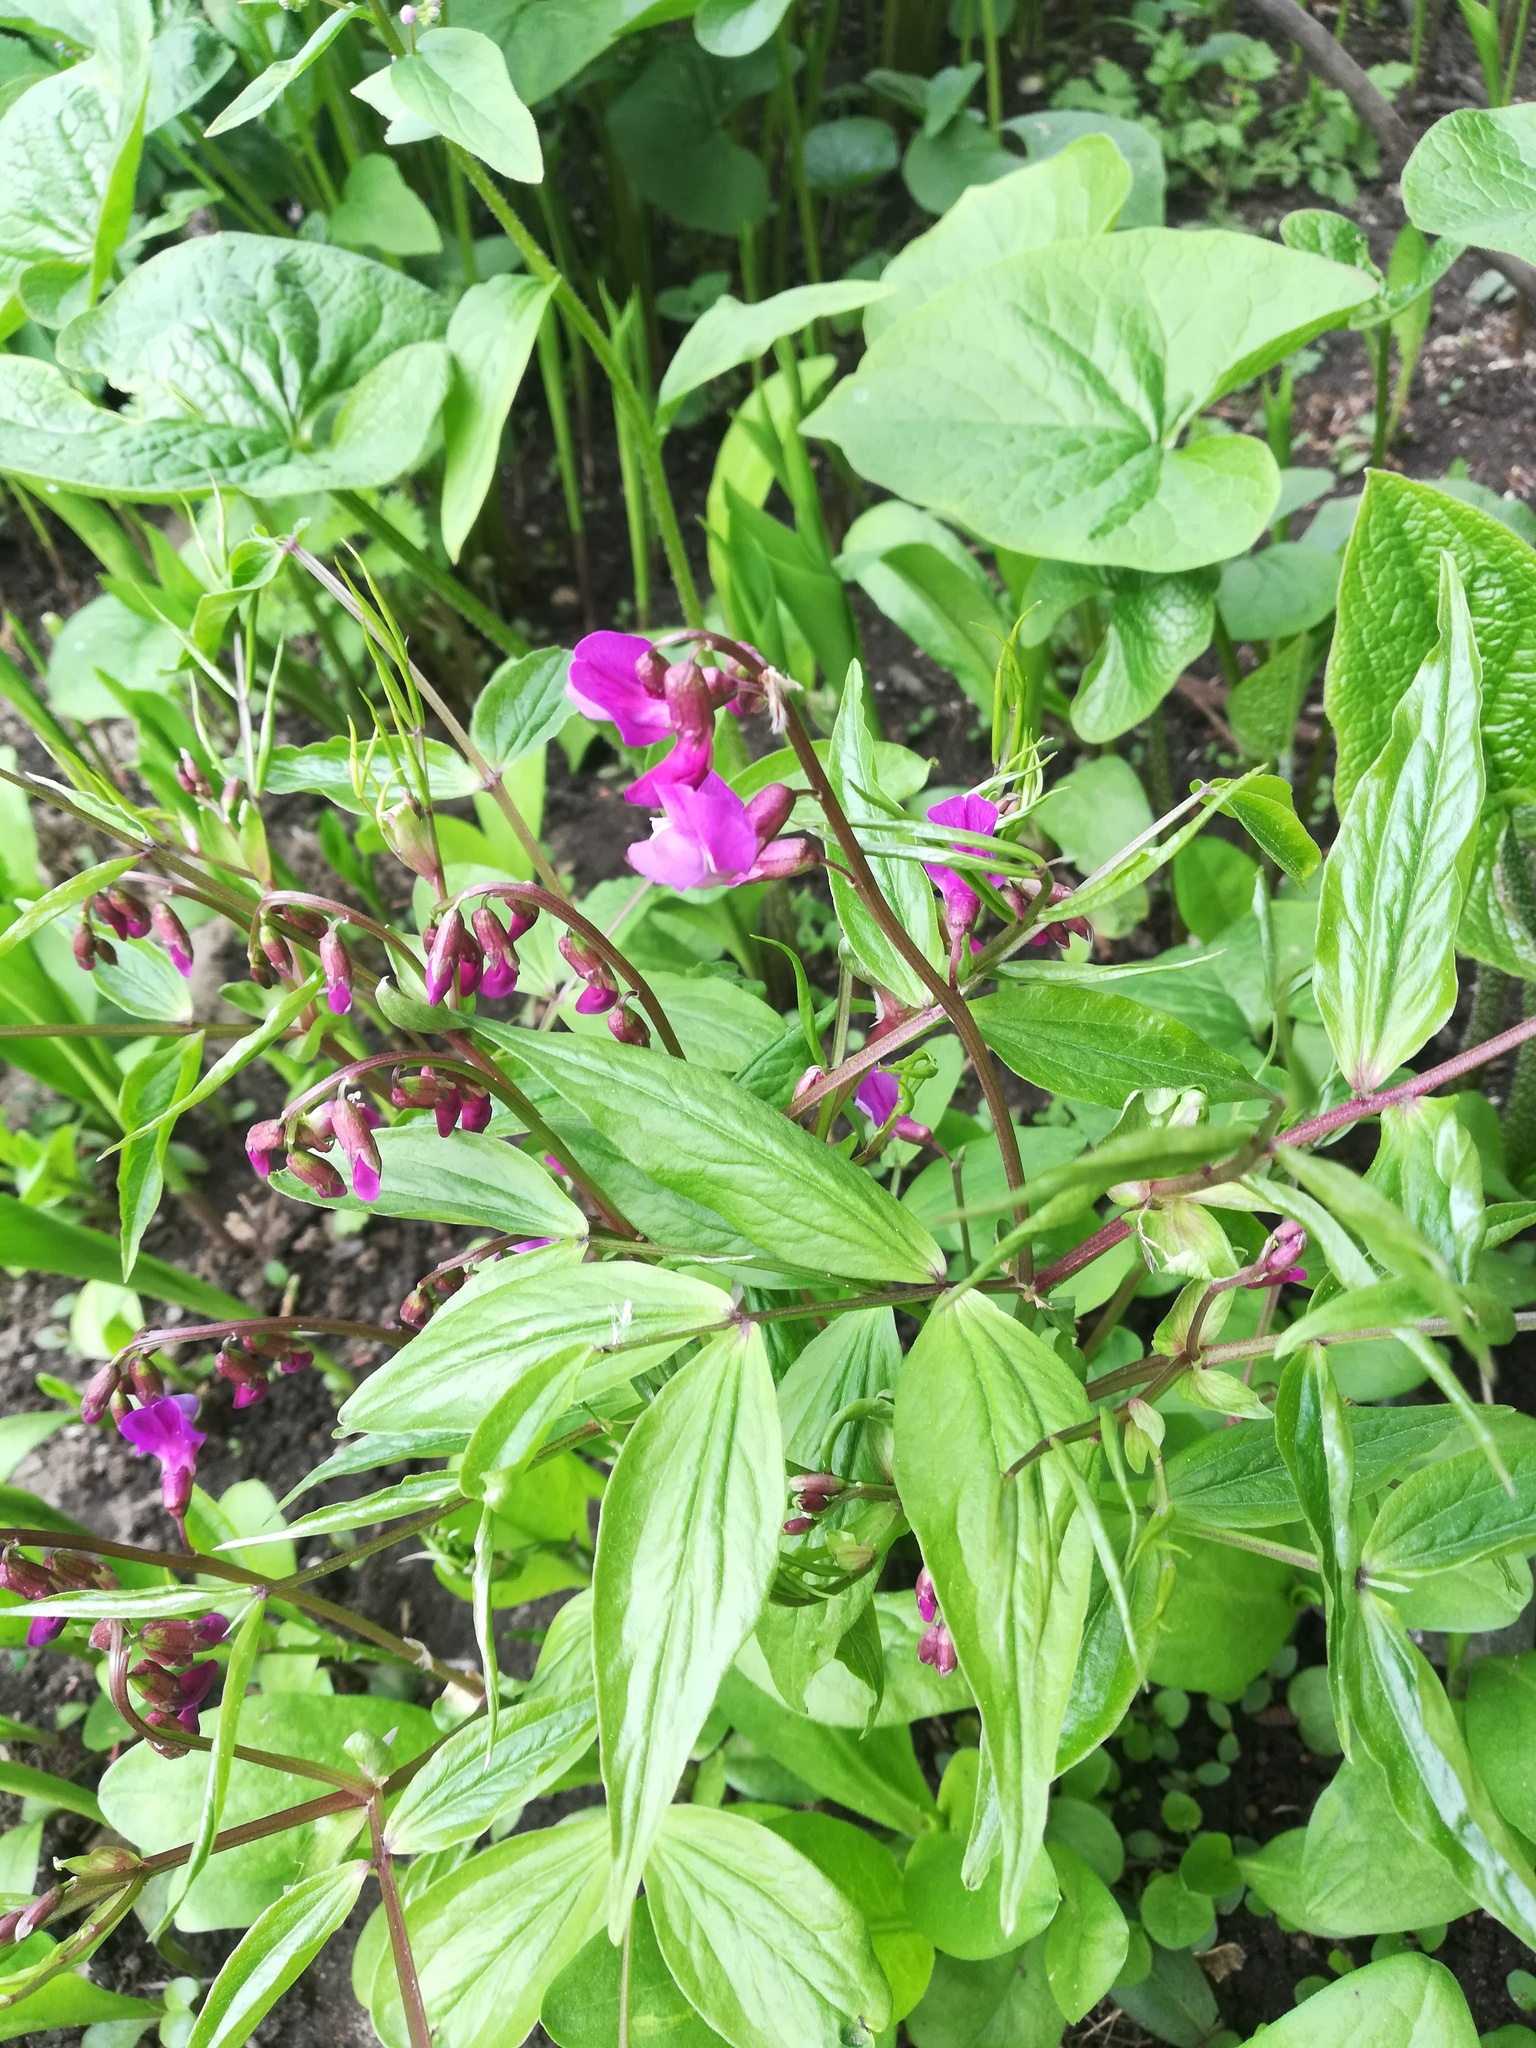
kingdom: Plantae
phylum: Tracheophyta
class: Magnoliopsida
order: Fabales
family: Fabaceae
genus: Lathyrus
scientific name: Lathyrus vernus
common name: Spring pea
